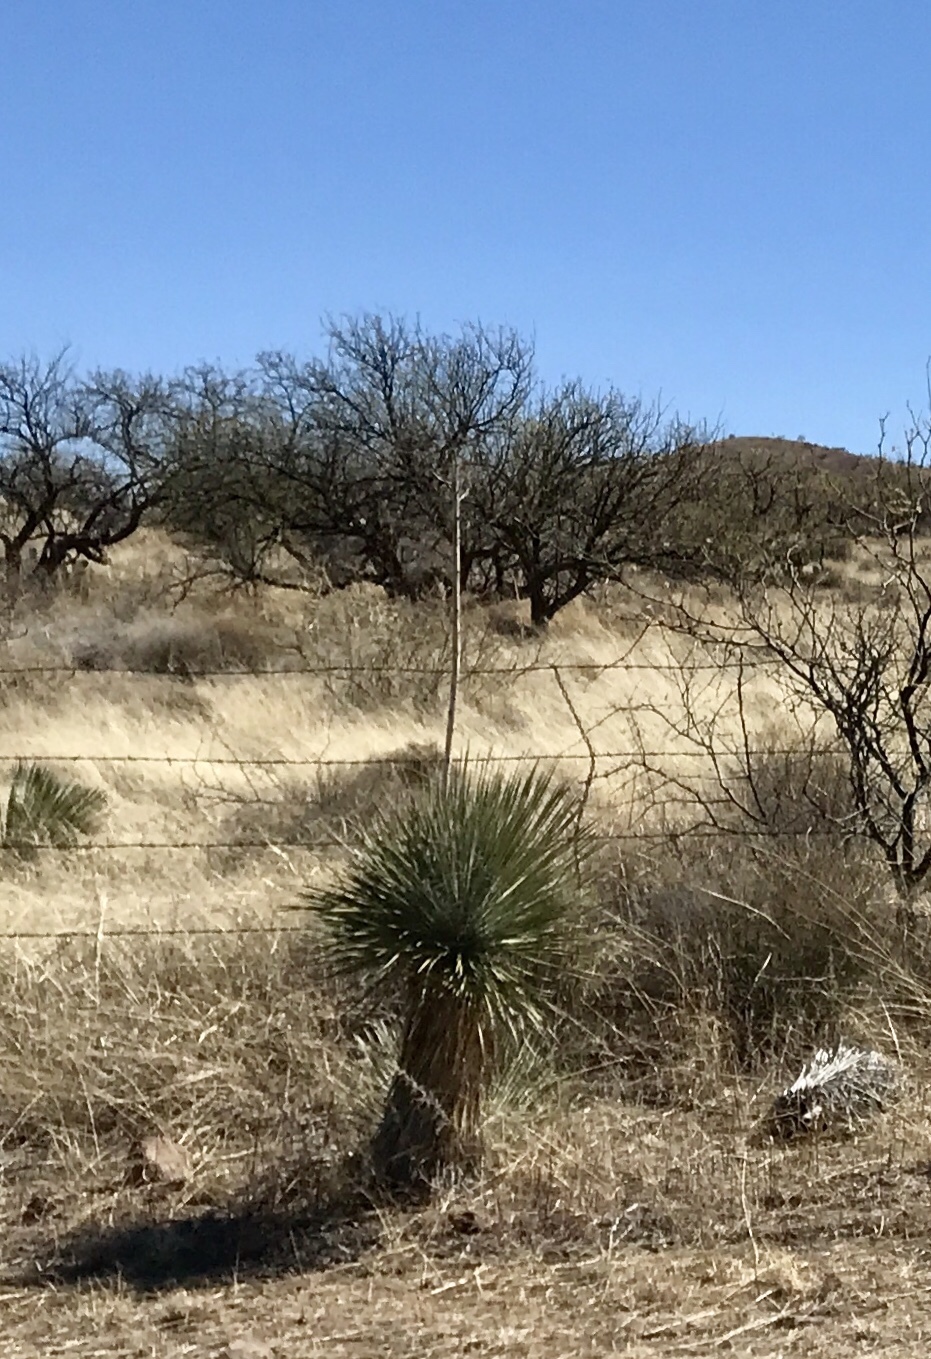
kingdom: Plantae
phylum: Tracheophyta
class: Liliopsida
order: Asparagales
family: Asparagaceae
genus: Yucca
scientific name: Yucca elata
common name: Palmella
